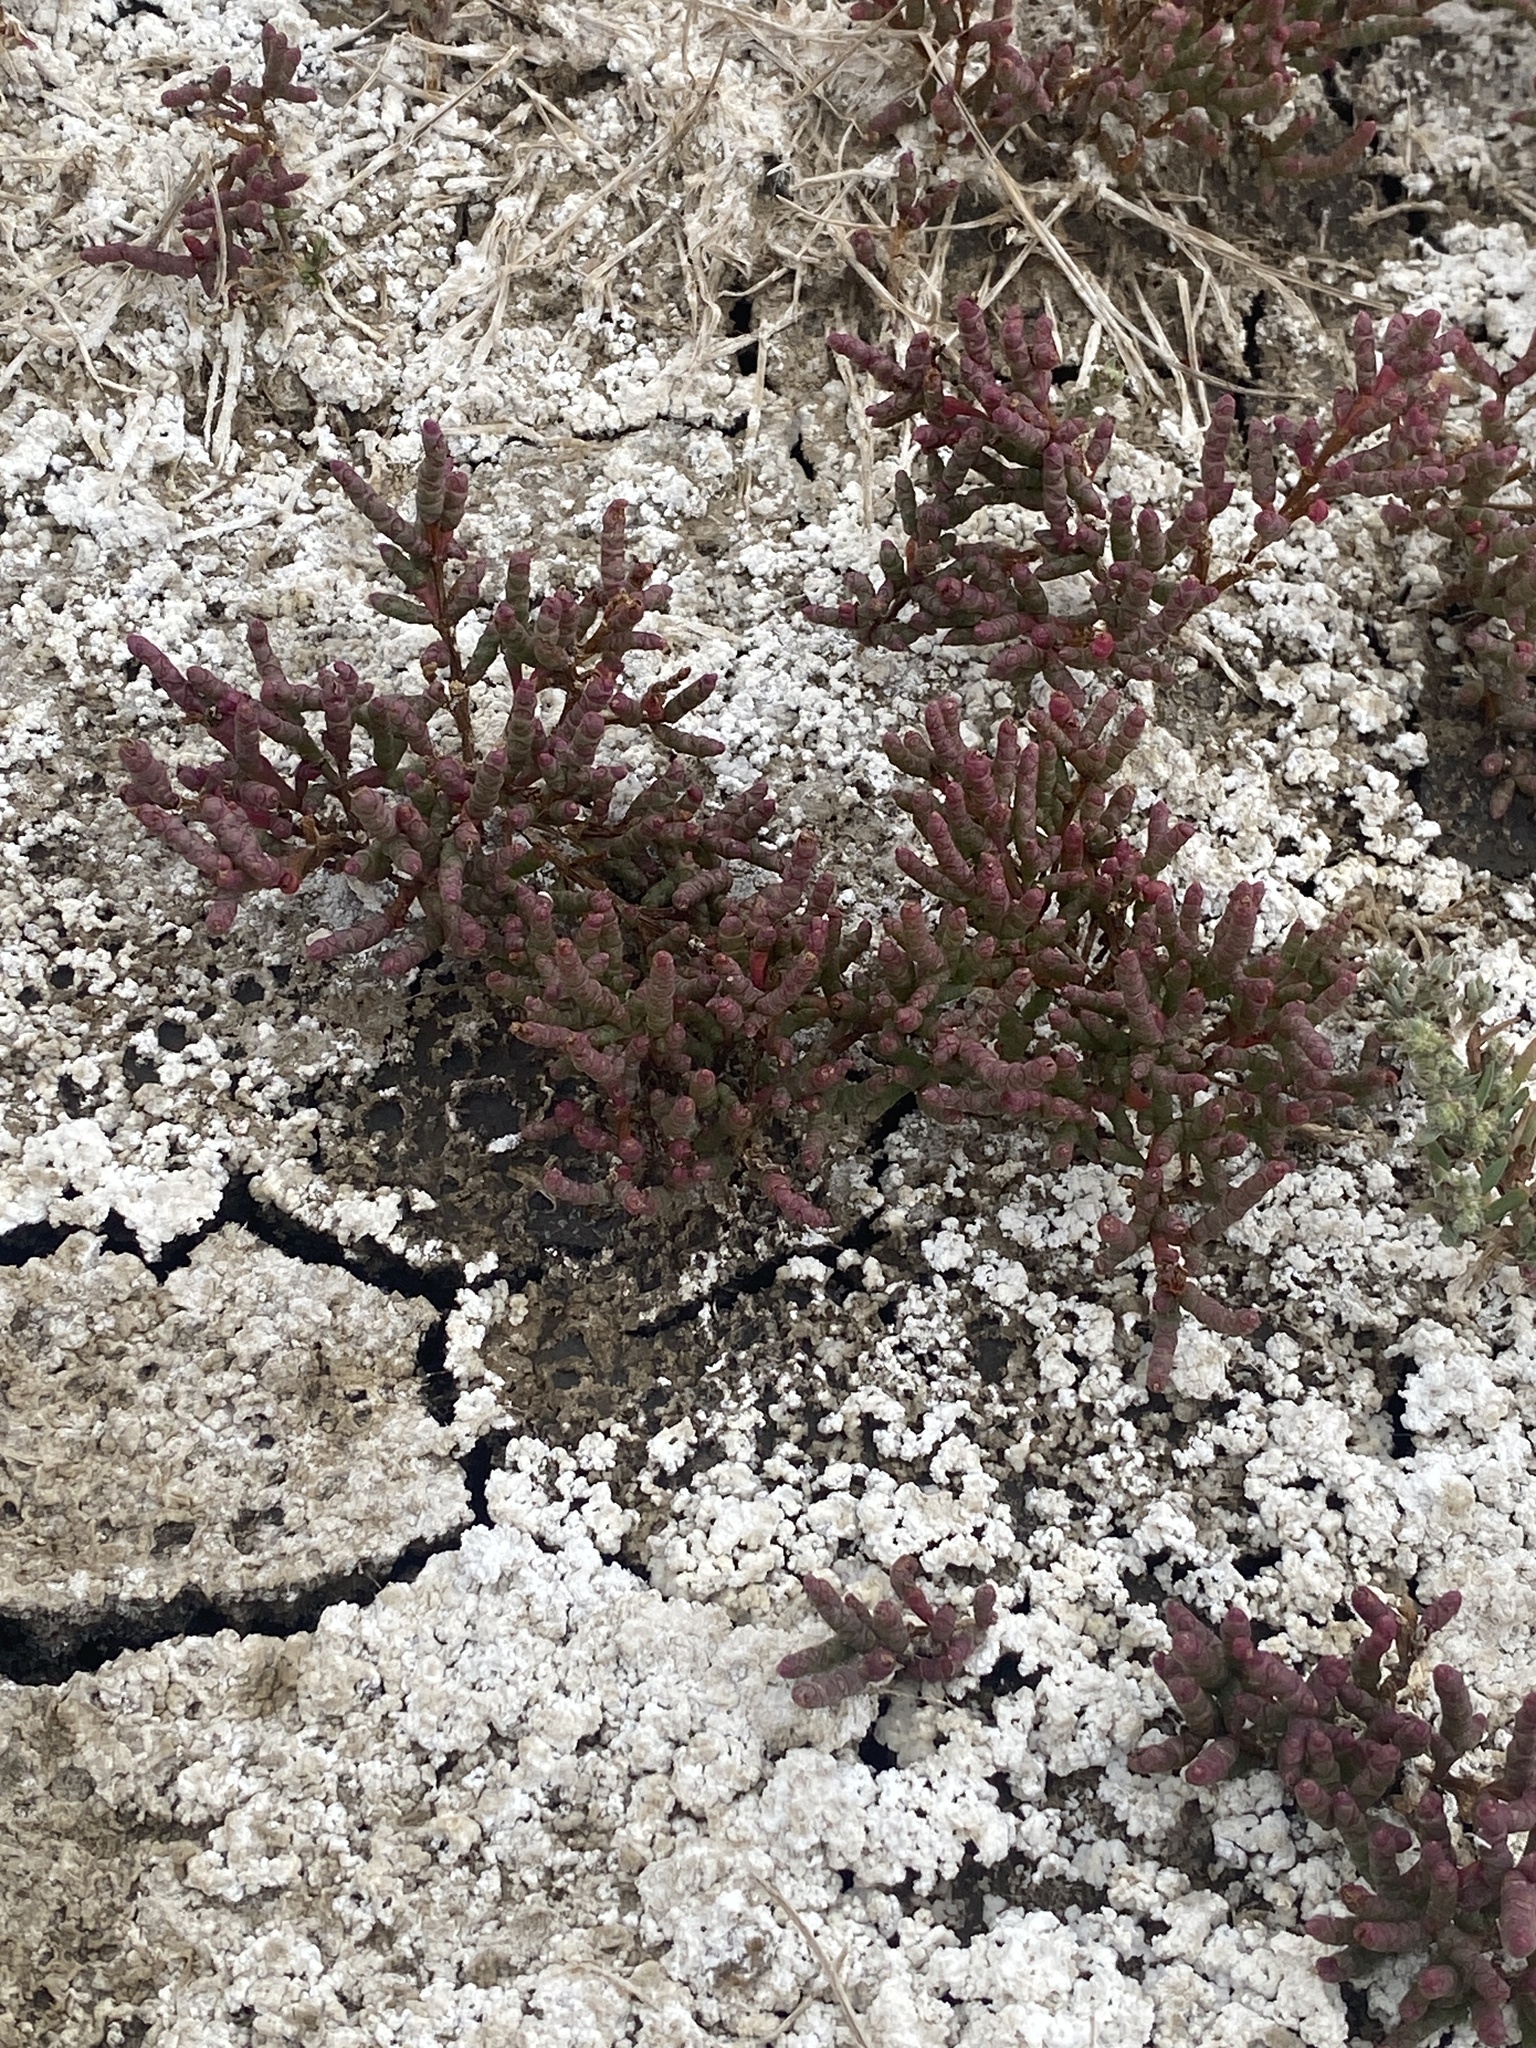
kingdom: Plantae
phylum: Tracheophyta
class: Magnoliopsida
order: Caryophyllales
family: Amaranthaceae
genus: Salicornia
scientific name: Salicornia rubra
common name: Red glasswort
